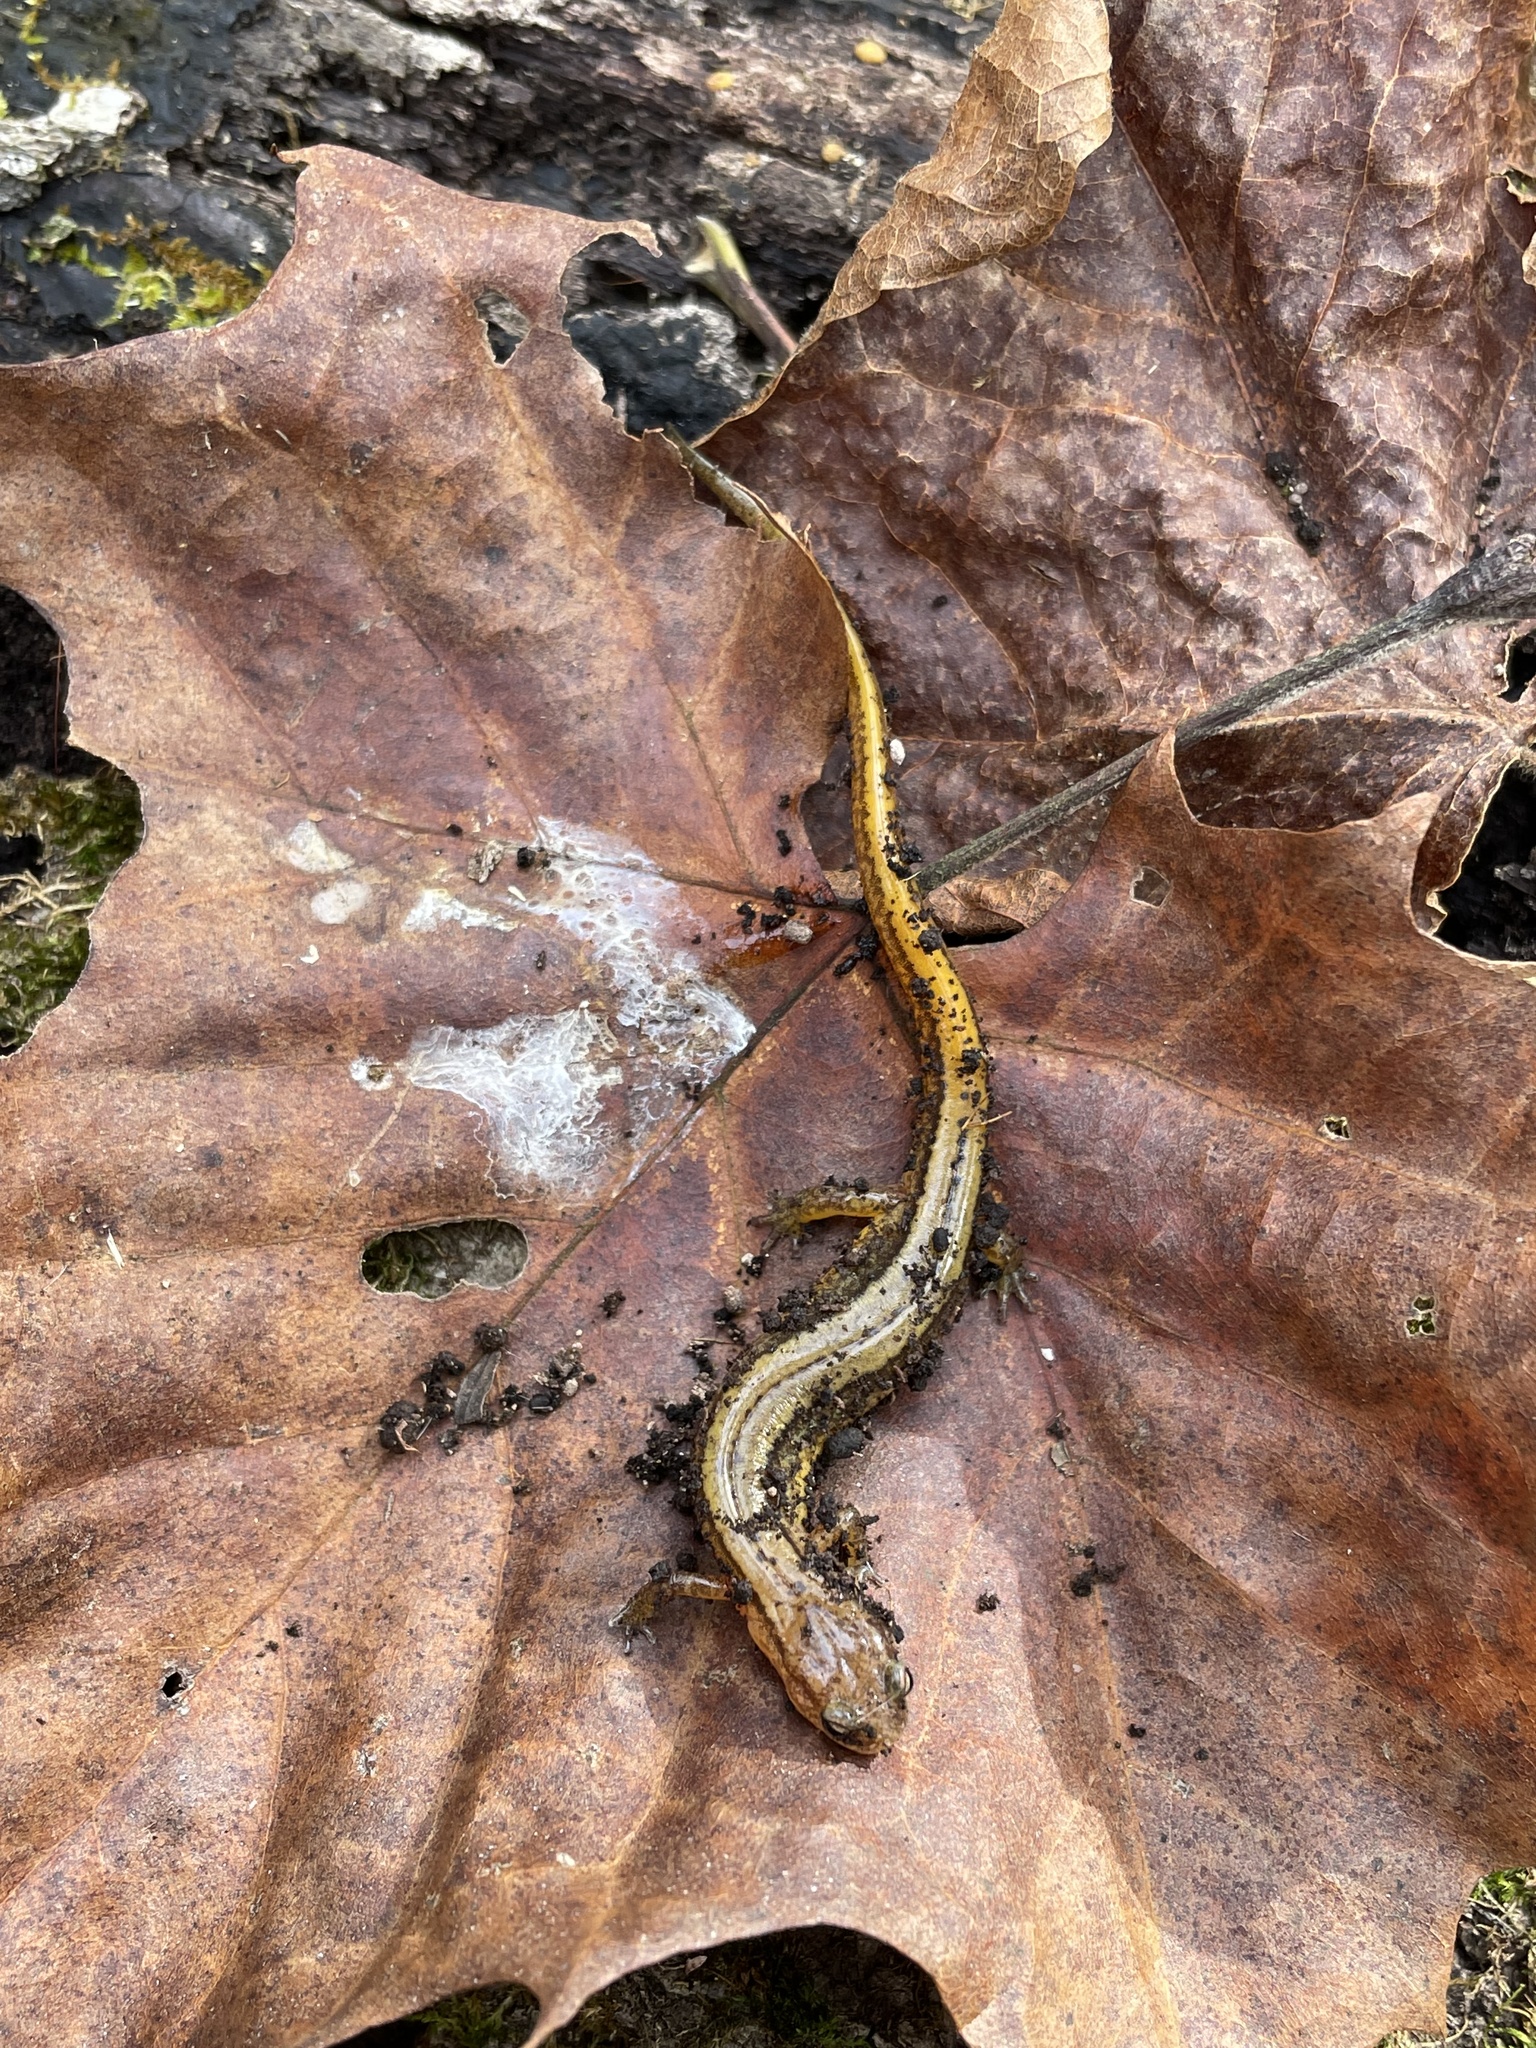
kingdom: Animalia
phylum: Chordata
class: Amphibia
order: Caudata
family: Plethodontidae
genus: Eurycea
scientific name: Eurycea cirrigera
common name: Southern two-lined salamander
